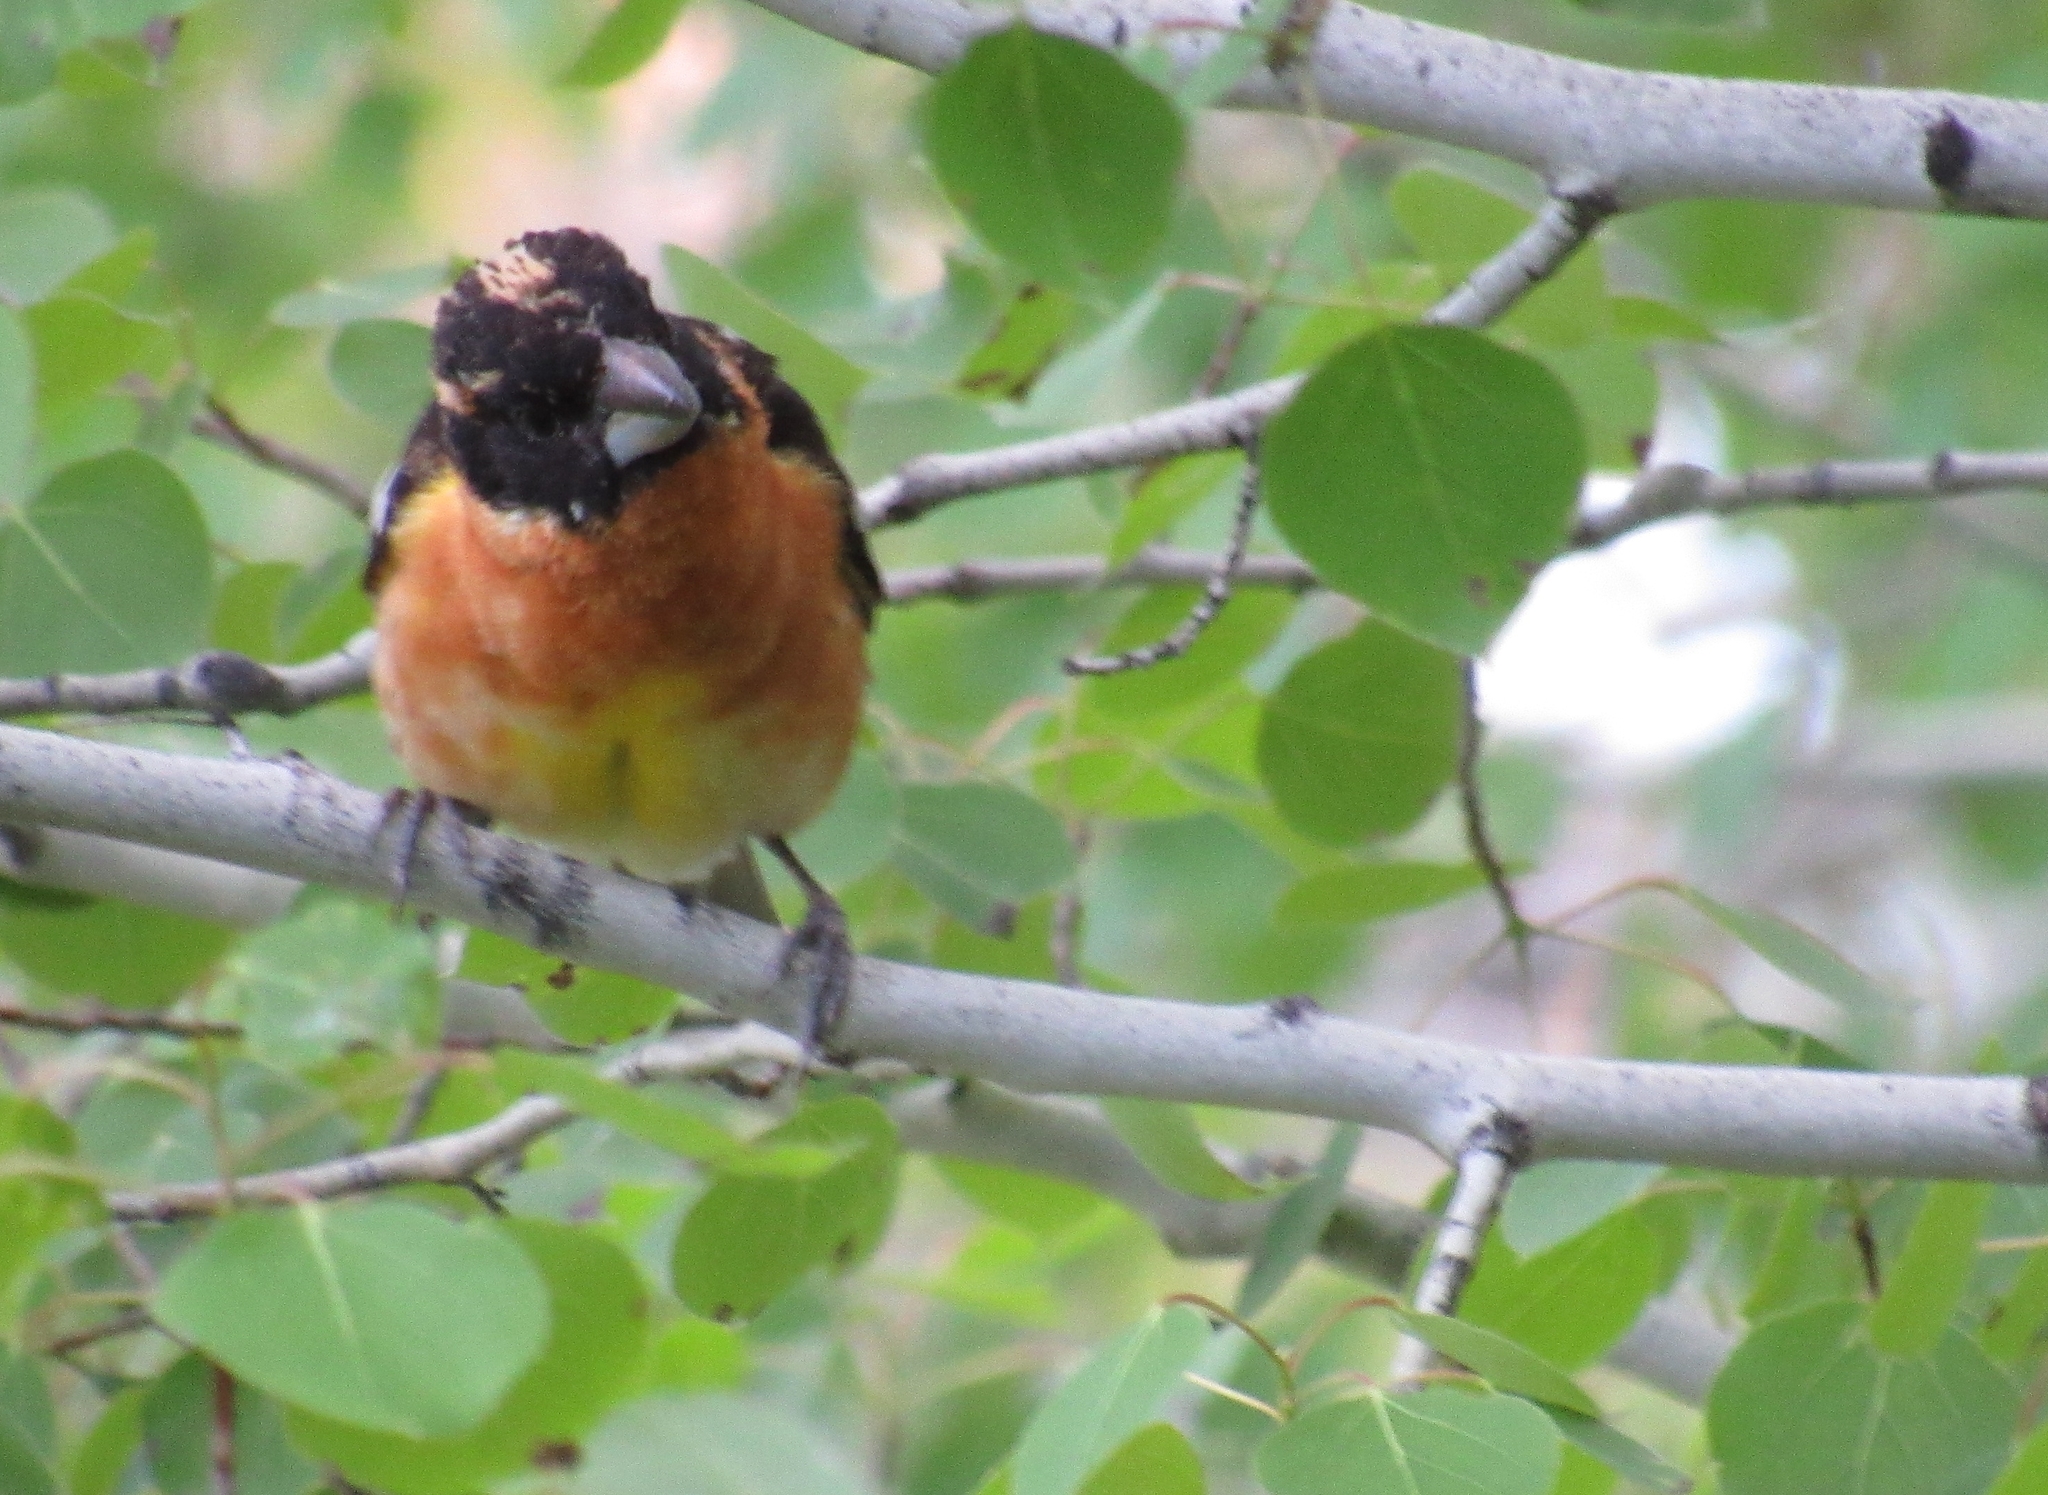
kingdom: Animalia
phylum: Chordata
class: Aves
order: Passeriformes
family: Cardinalidae
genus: Pheucticus
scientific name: Pheucticus melanocephalus
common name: Black-headed grosbeak
